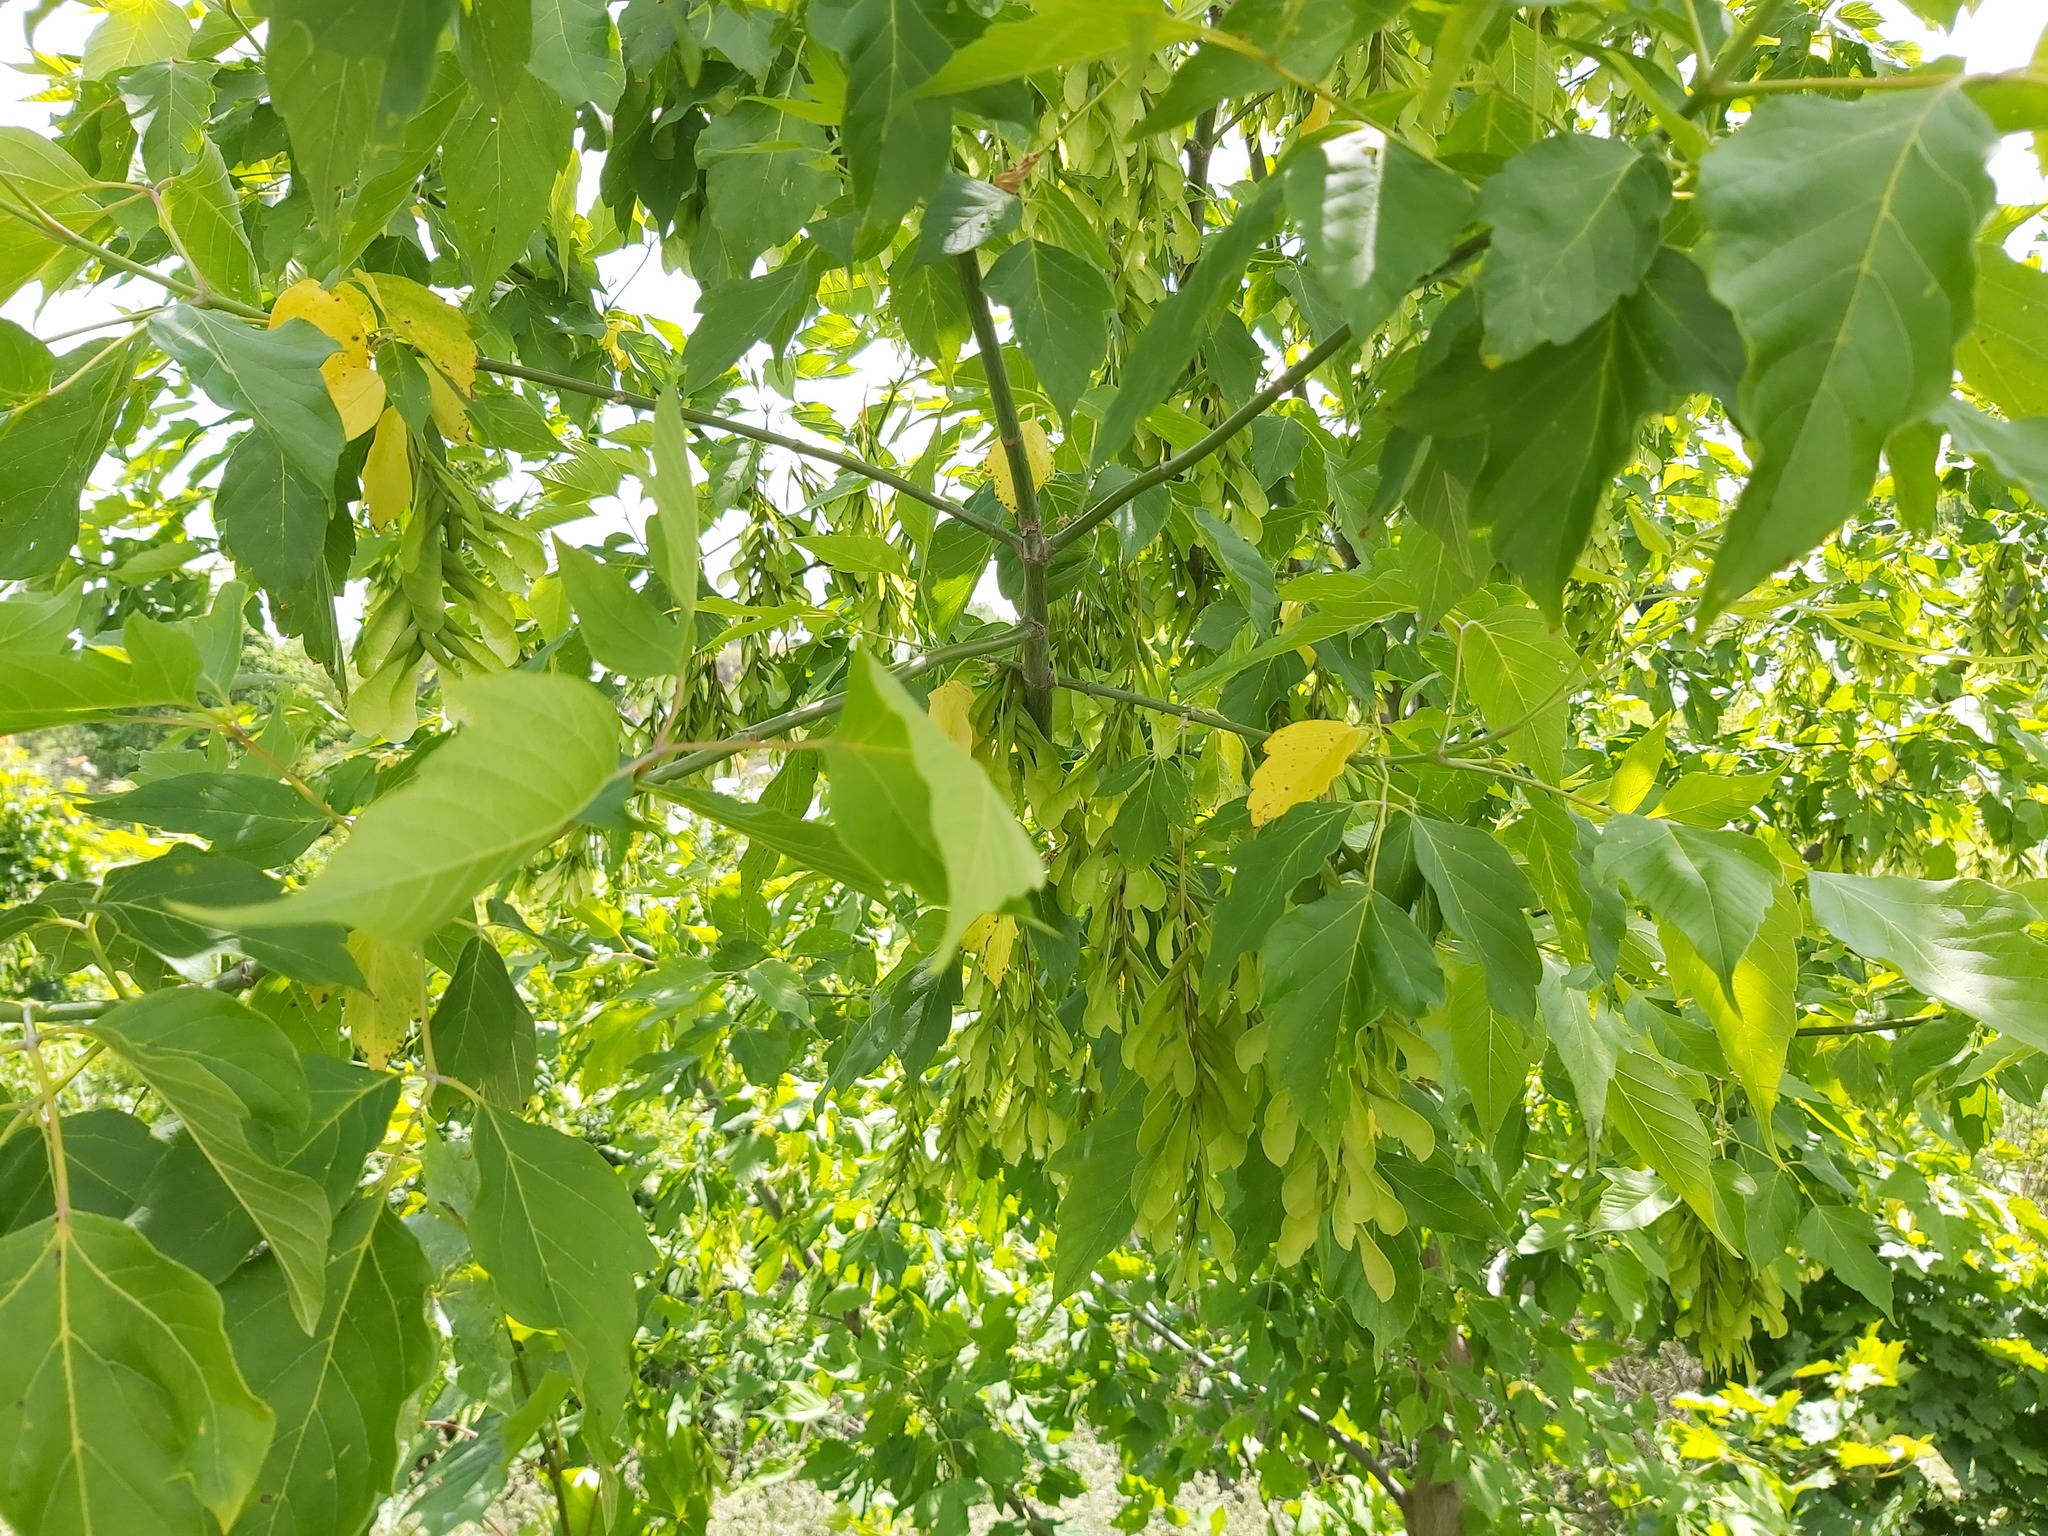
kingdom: Plantae
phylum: Tracheophyta
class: Magnoliopsida
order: Sapindales
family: Sapindaceae
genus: Acer
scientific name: Acer negundo
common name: Ashleaf maple
